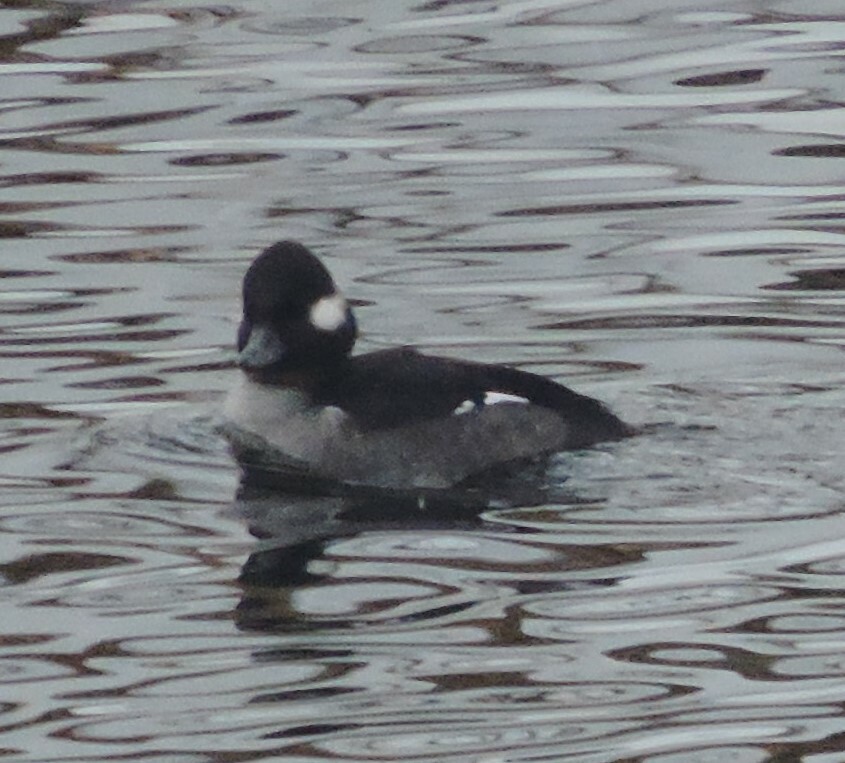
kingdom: Animalia
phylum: Chordata
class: Aves
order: Anseriformes
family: Anatidae
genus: Bucephala
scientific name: Bucephala albeola
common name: Bufflehead
